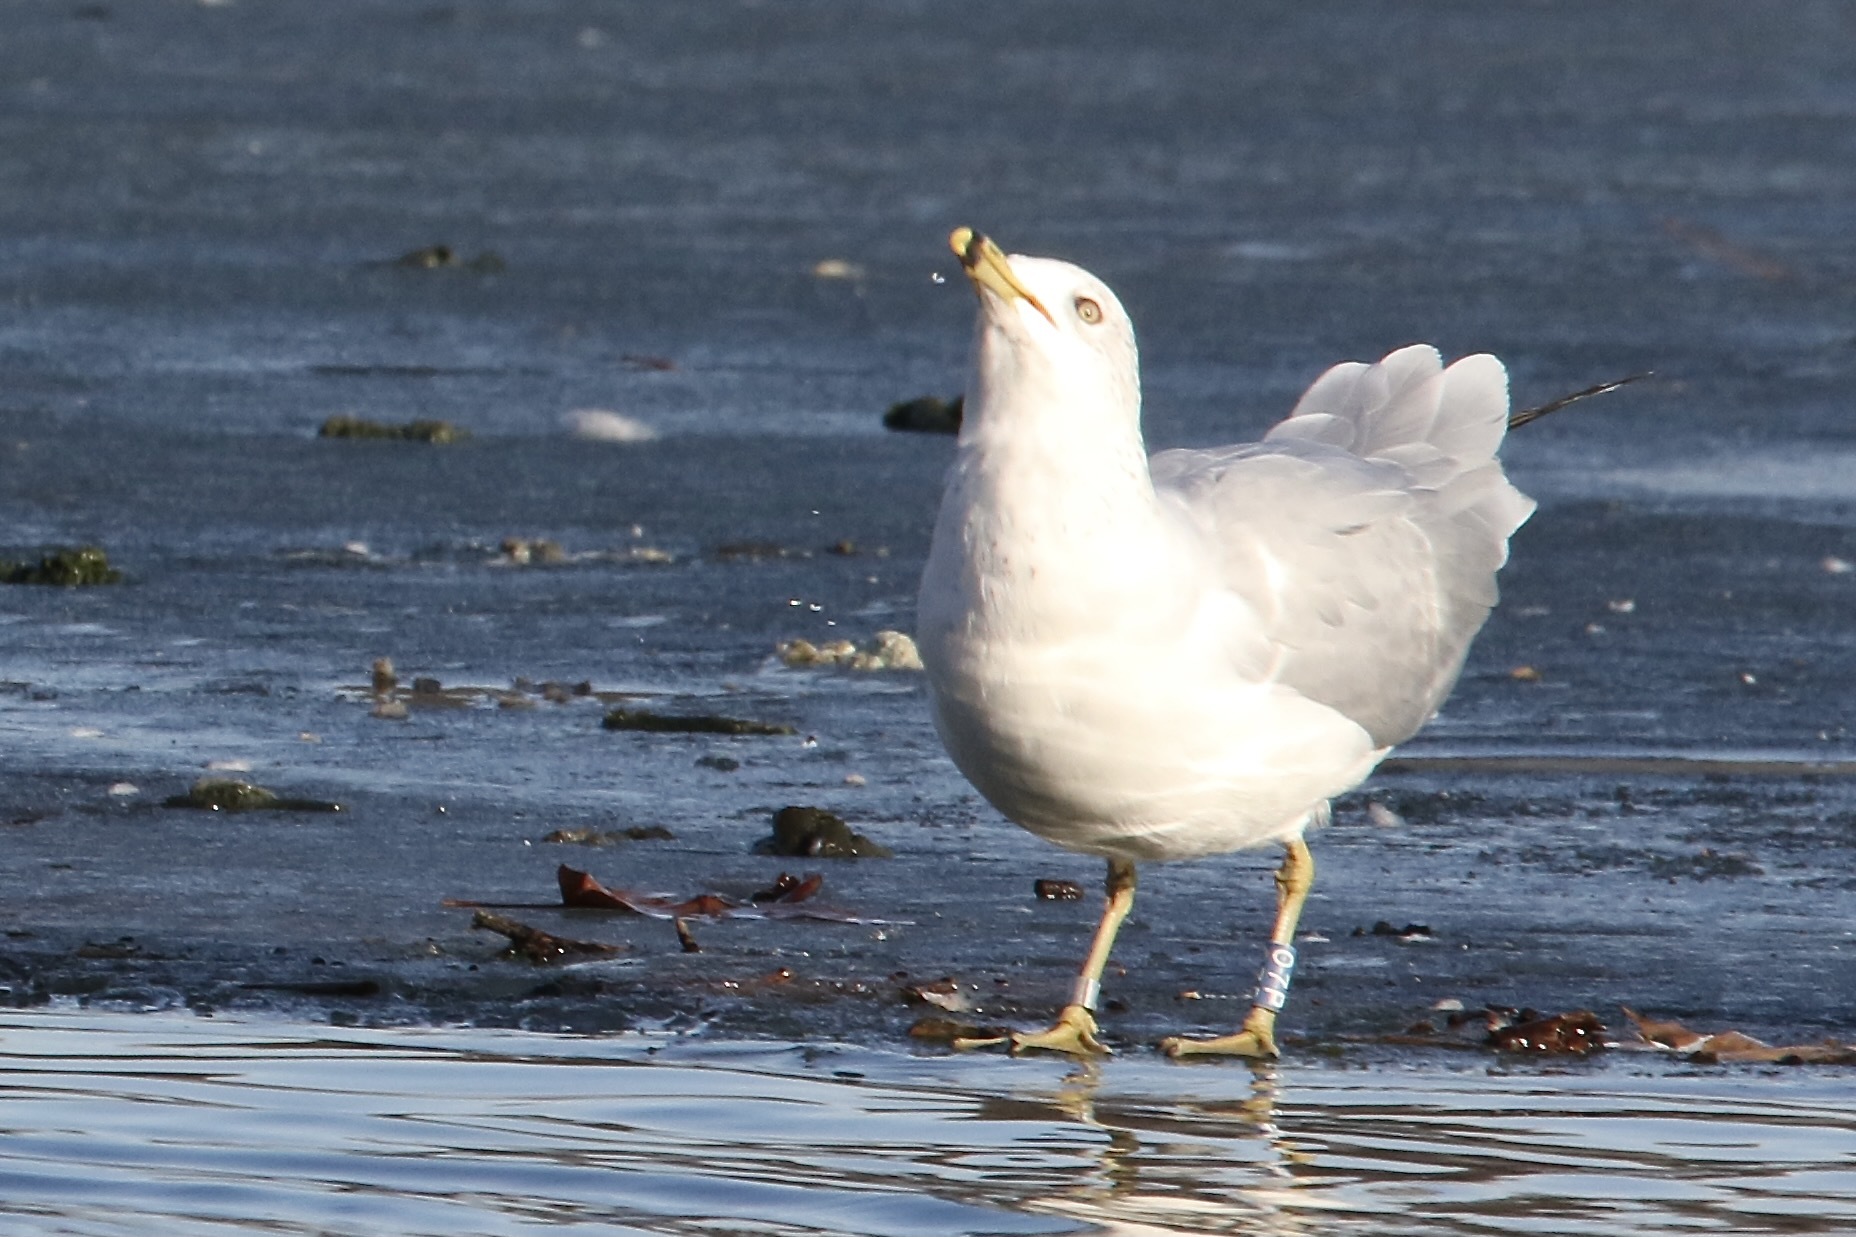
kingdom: Animalia
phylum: Chordata
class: Aves
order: Charadriiformes
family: Laridae
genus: Larus
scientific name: Larus delawarensis
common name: Ring-billed gull
